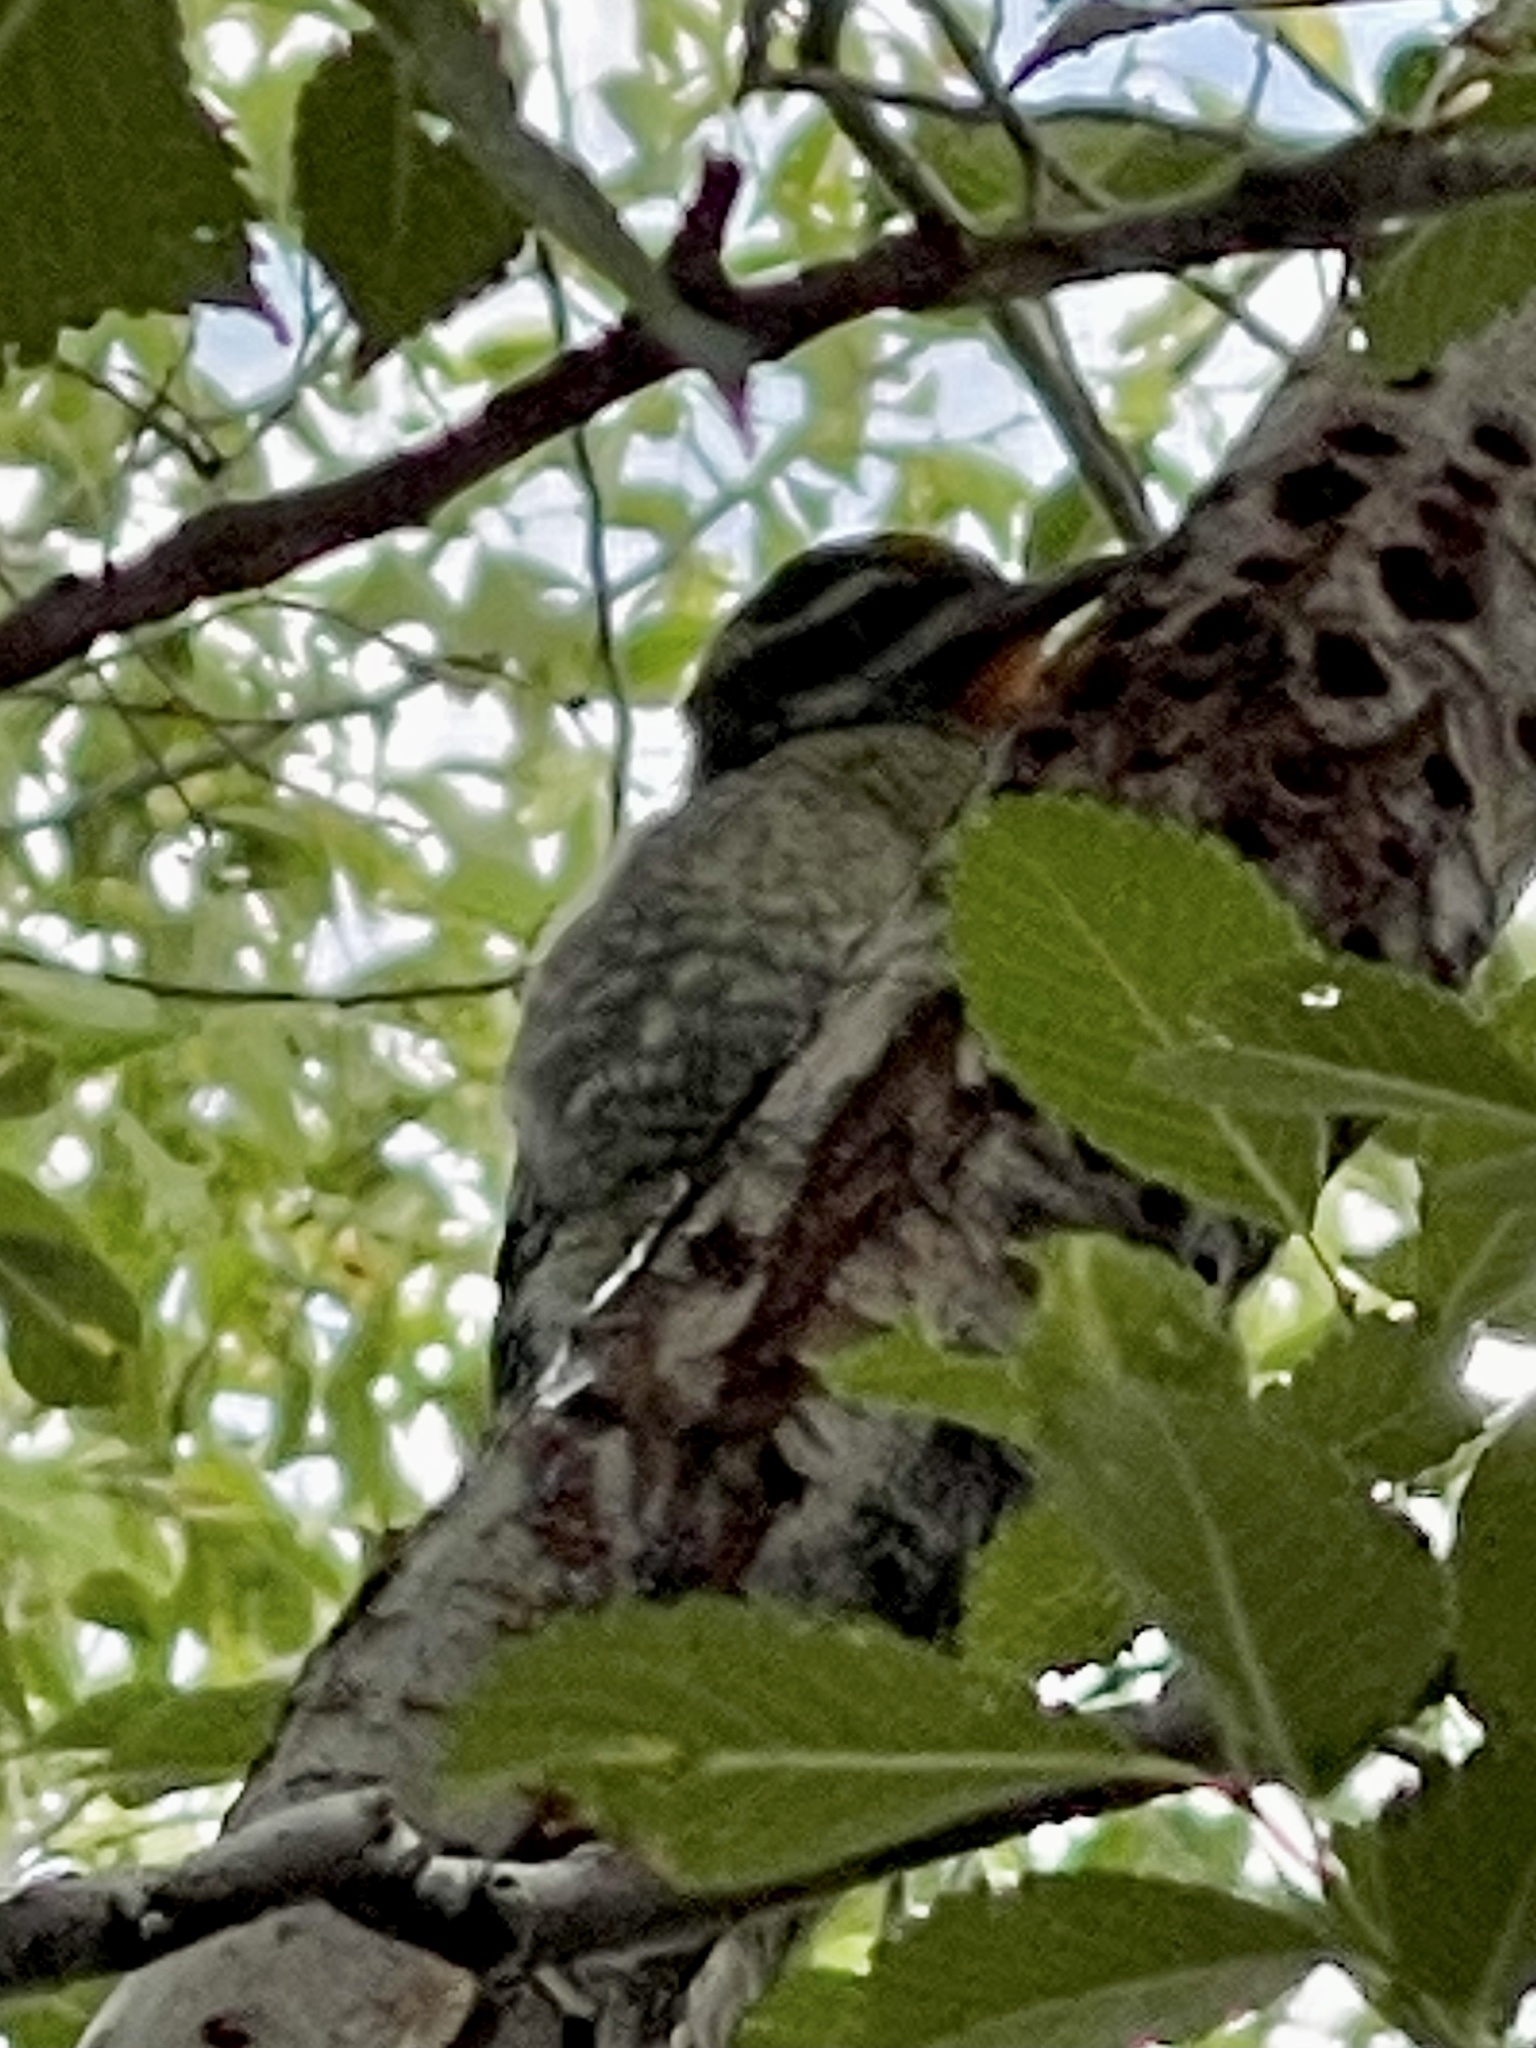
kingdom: Animalia
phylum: Chordata
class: Aves
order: Piciformes
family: Picidae
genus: Sphyrapicus
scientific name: Sphyrapicus nuchalis
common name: Red-naped sapsucker
